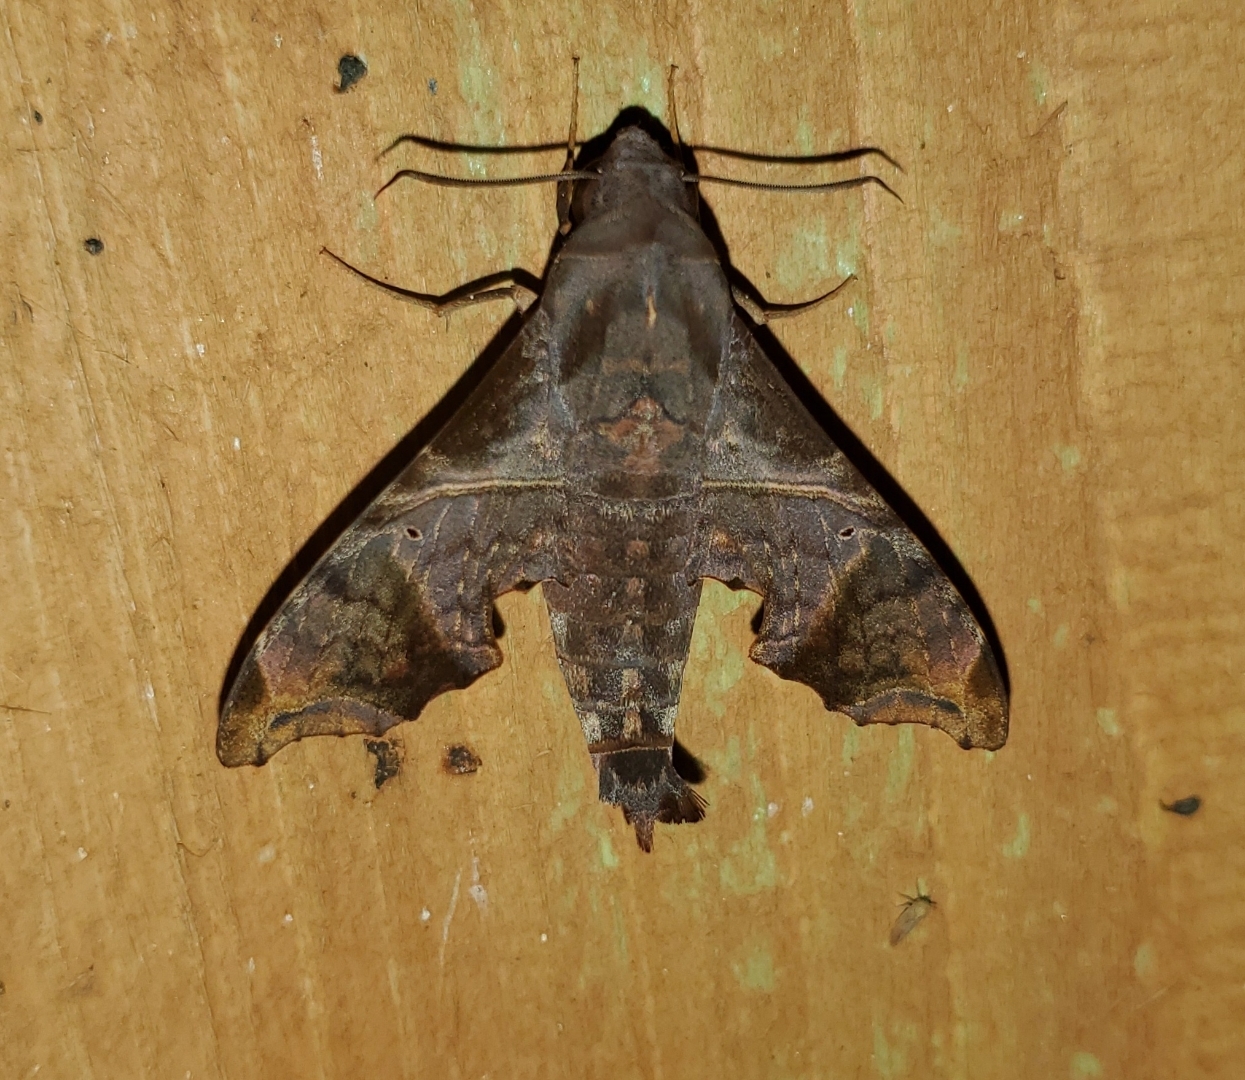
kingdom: Animalia
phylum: Arthropoda
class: Insecta
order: Lepidoptera
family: Sphingidae
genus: Enyo
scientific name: Enyo lugubris
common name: Mournful sphinx
